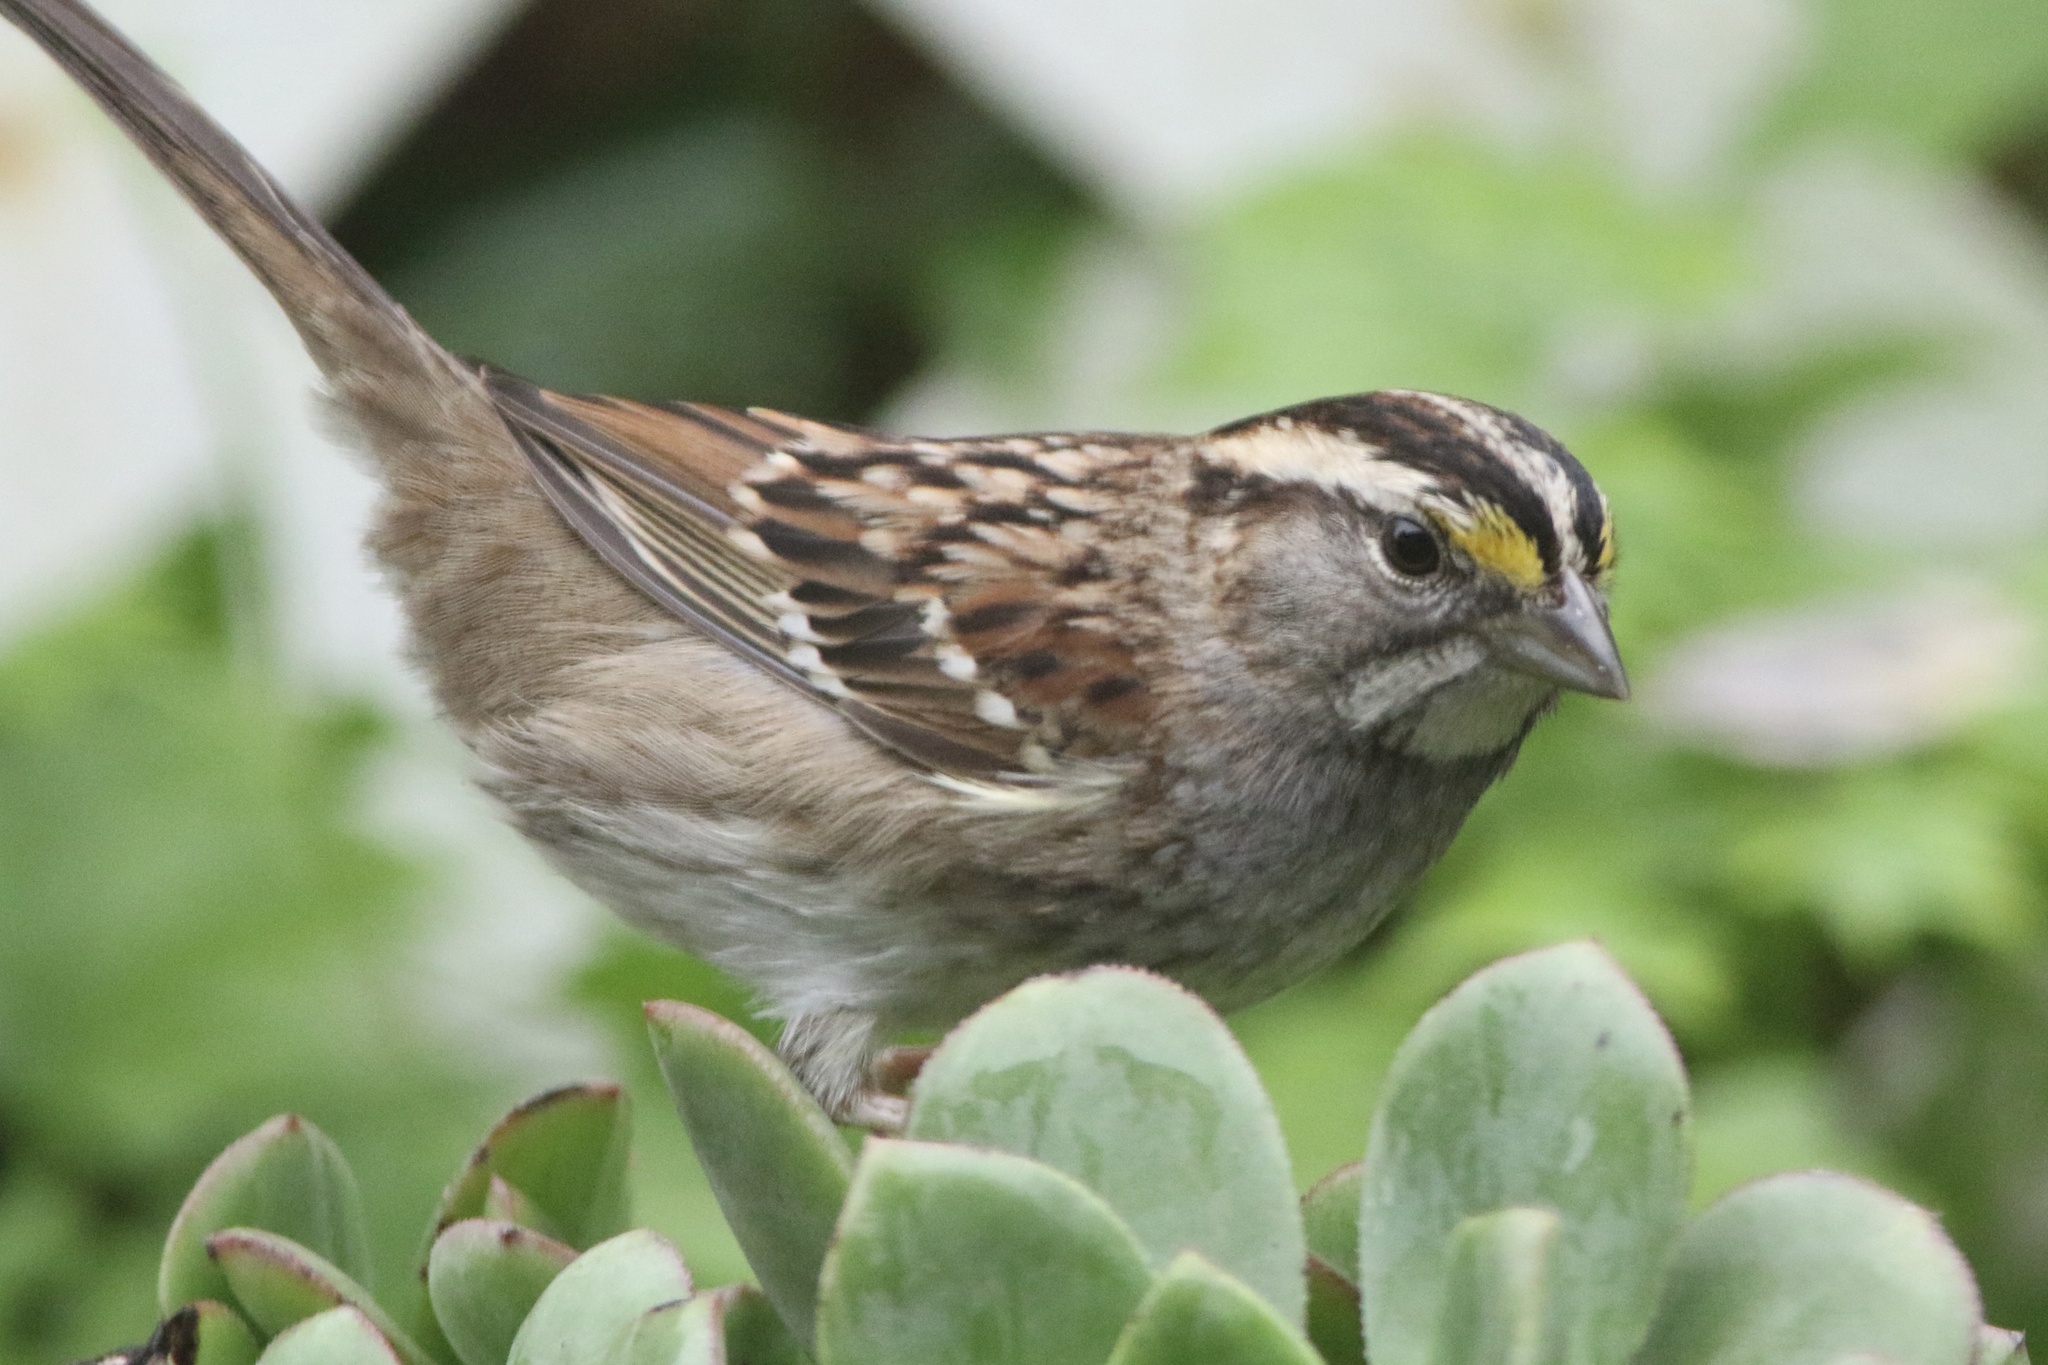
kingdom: Animalia
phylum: Chordata
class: Aves
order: Passeriformes
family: Passerellidae
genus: Zonotrichia
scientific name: Zonotrichia albicollis
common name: White-throated sparrow
